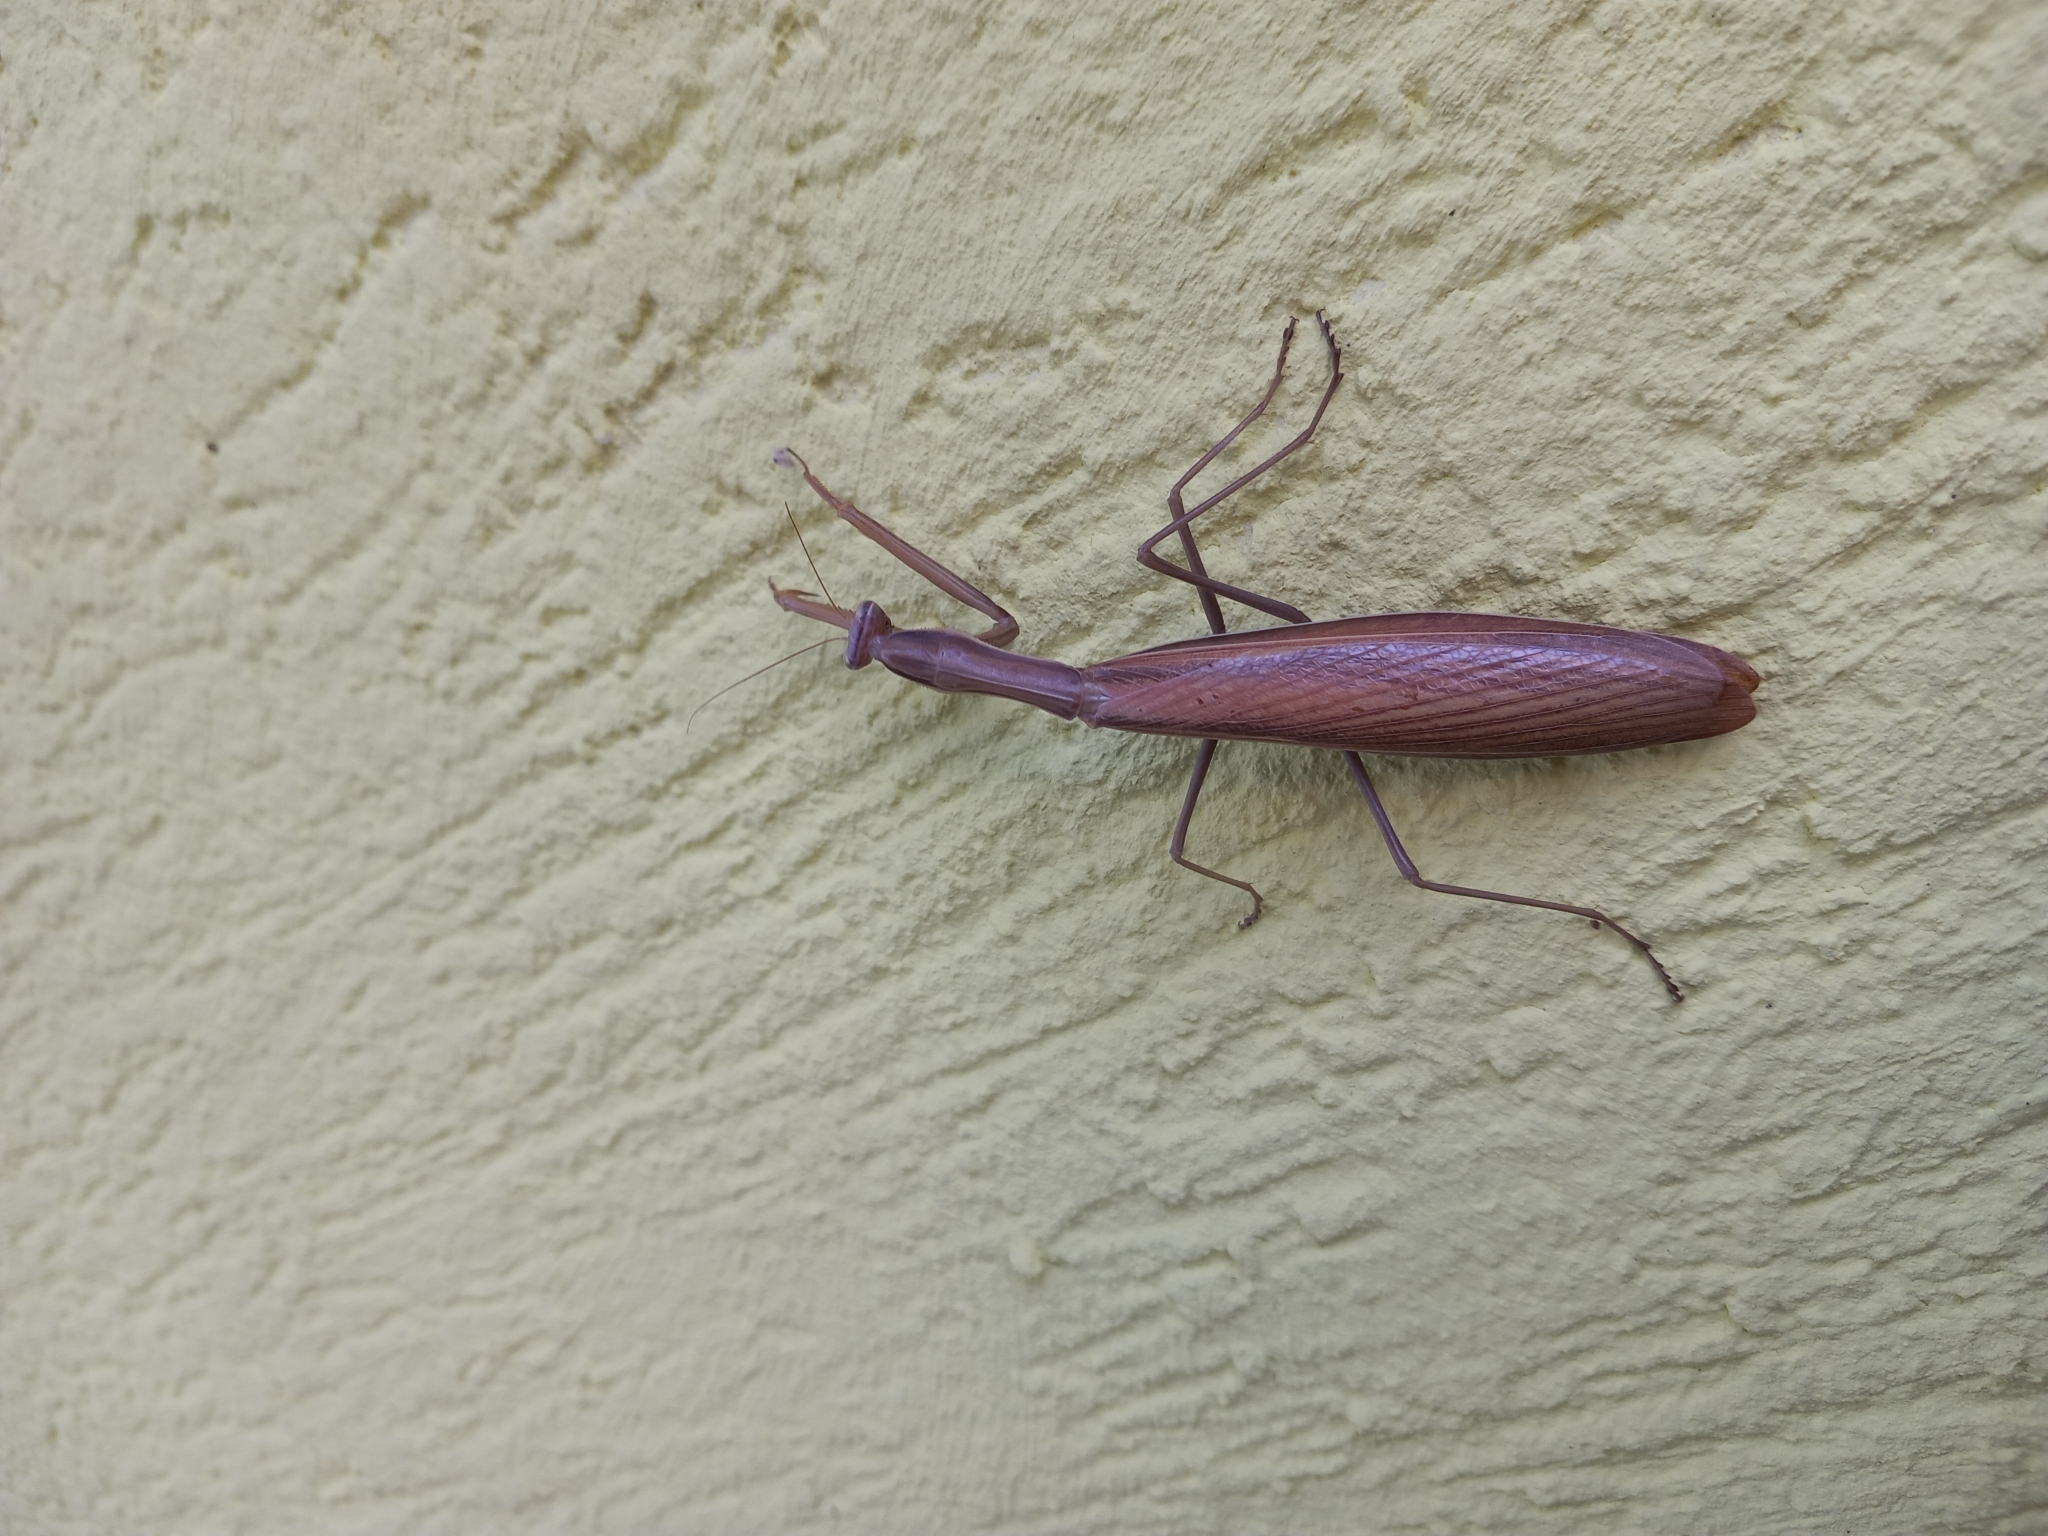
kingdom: Animalia
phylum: Arthropoda
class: Insecta
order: Mantodea
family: Mantidae
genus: Mantis
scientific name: Mantis religiosa
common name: Praying mantis
